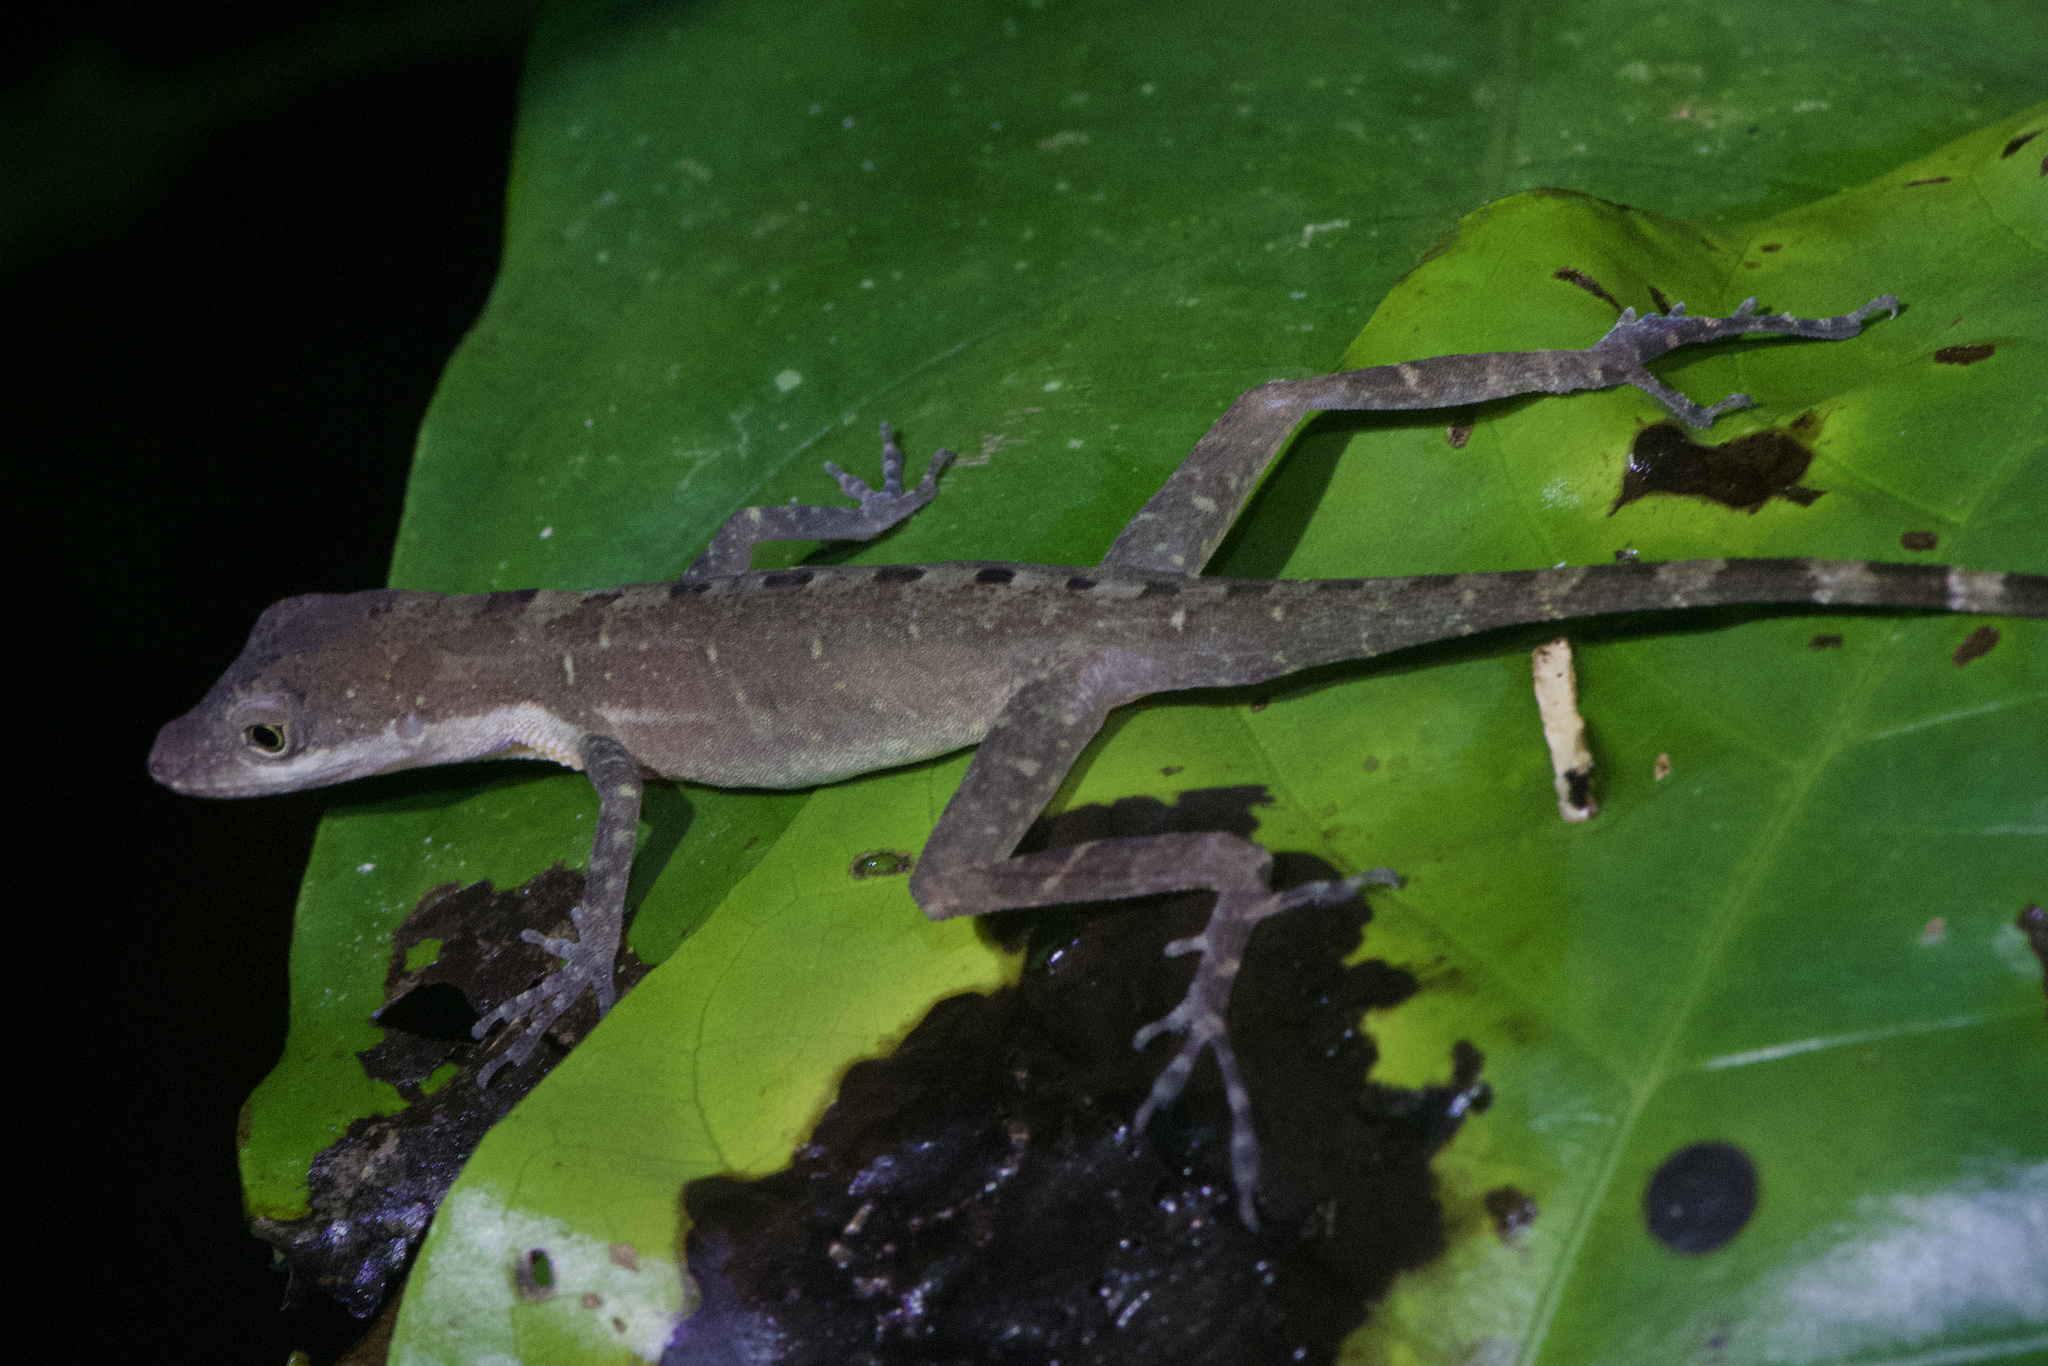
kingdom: Animalia
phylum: Chordata
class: Squamata
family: Dactyloidae
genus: Anolis
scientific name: Anolis limifrons
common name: Border anole
